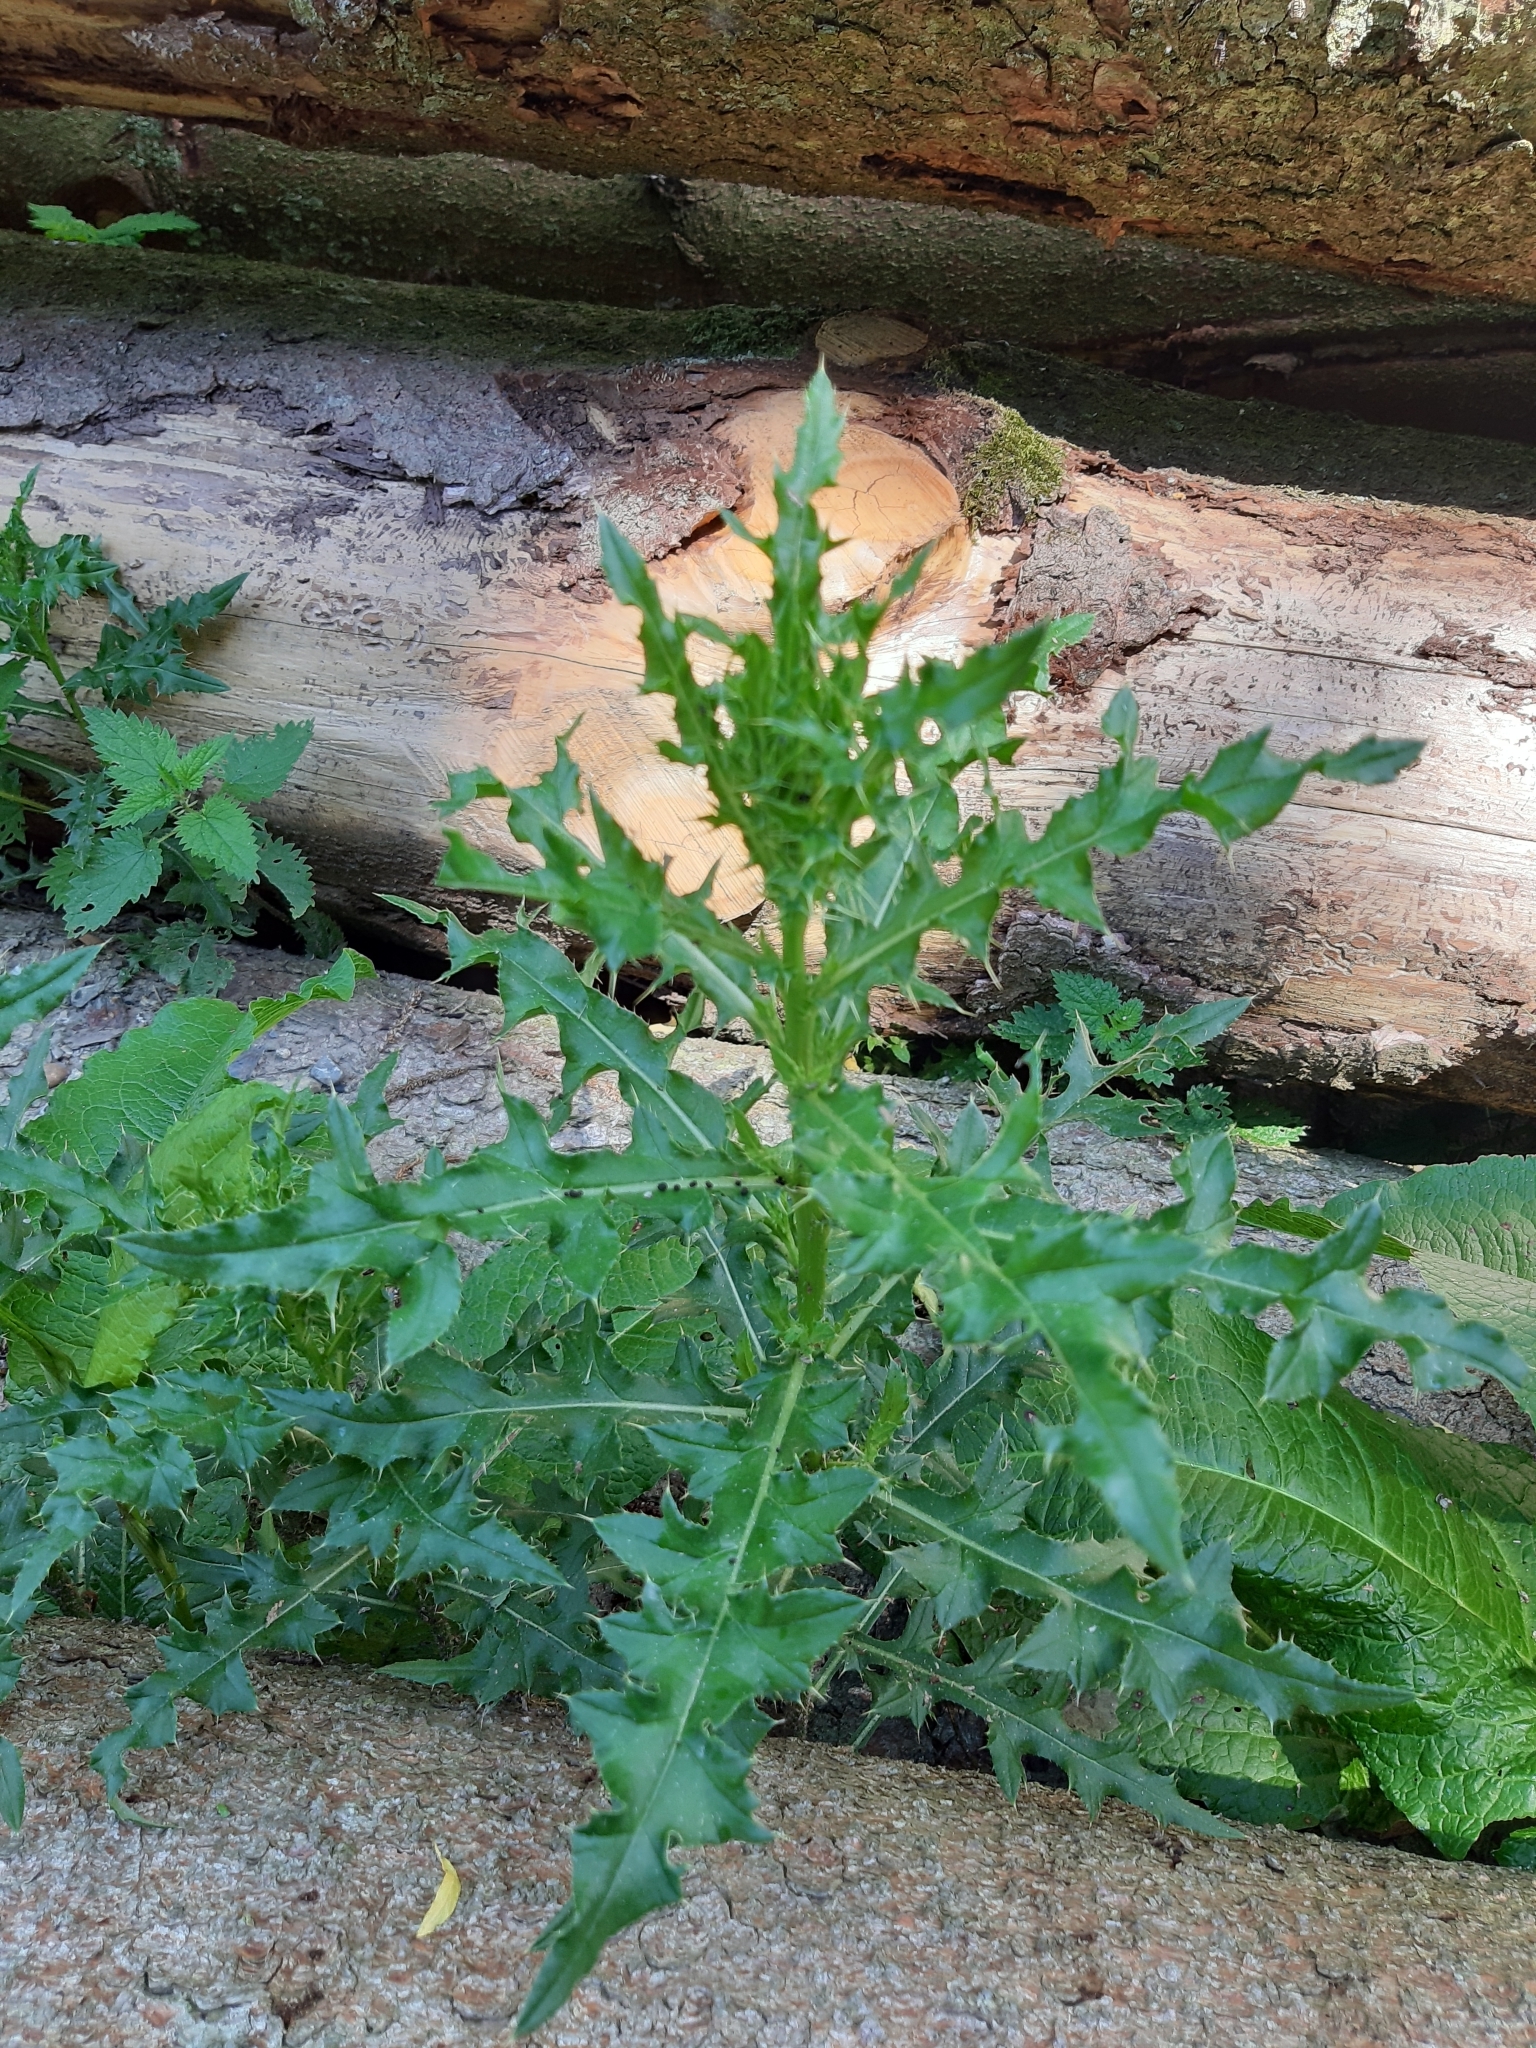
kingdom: Plantae
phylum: Tracheophyta
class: Magnoliopsida
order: Asterales
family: Asteraceae
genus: Cirsium
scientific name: Cirsium arvense
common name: Creeping thistle
